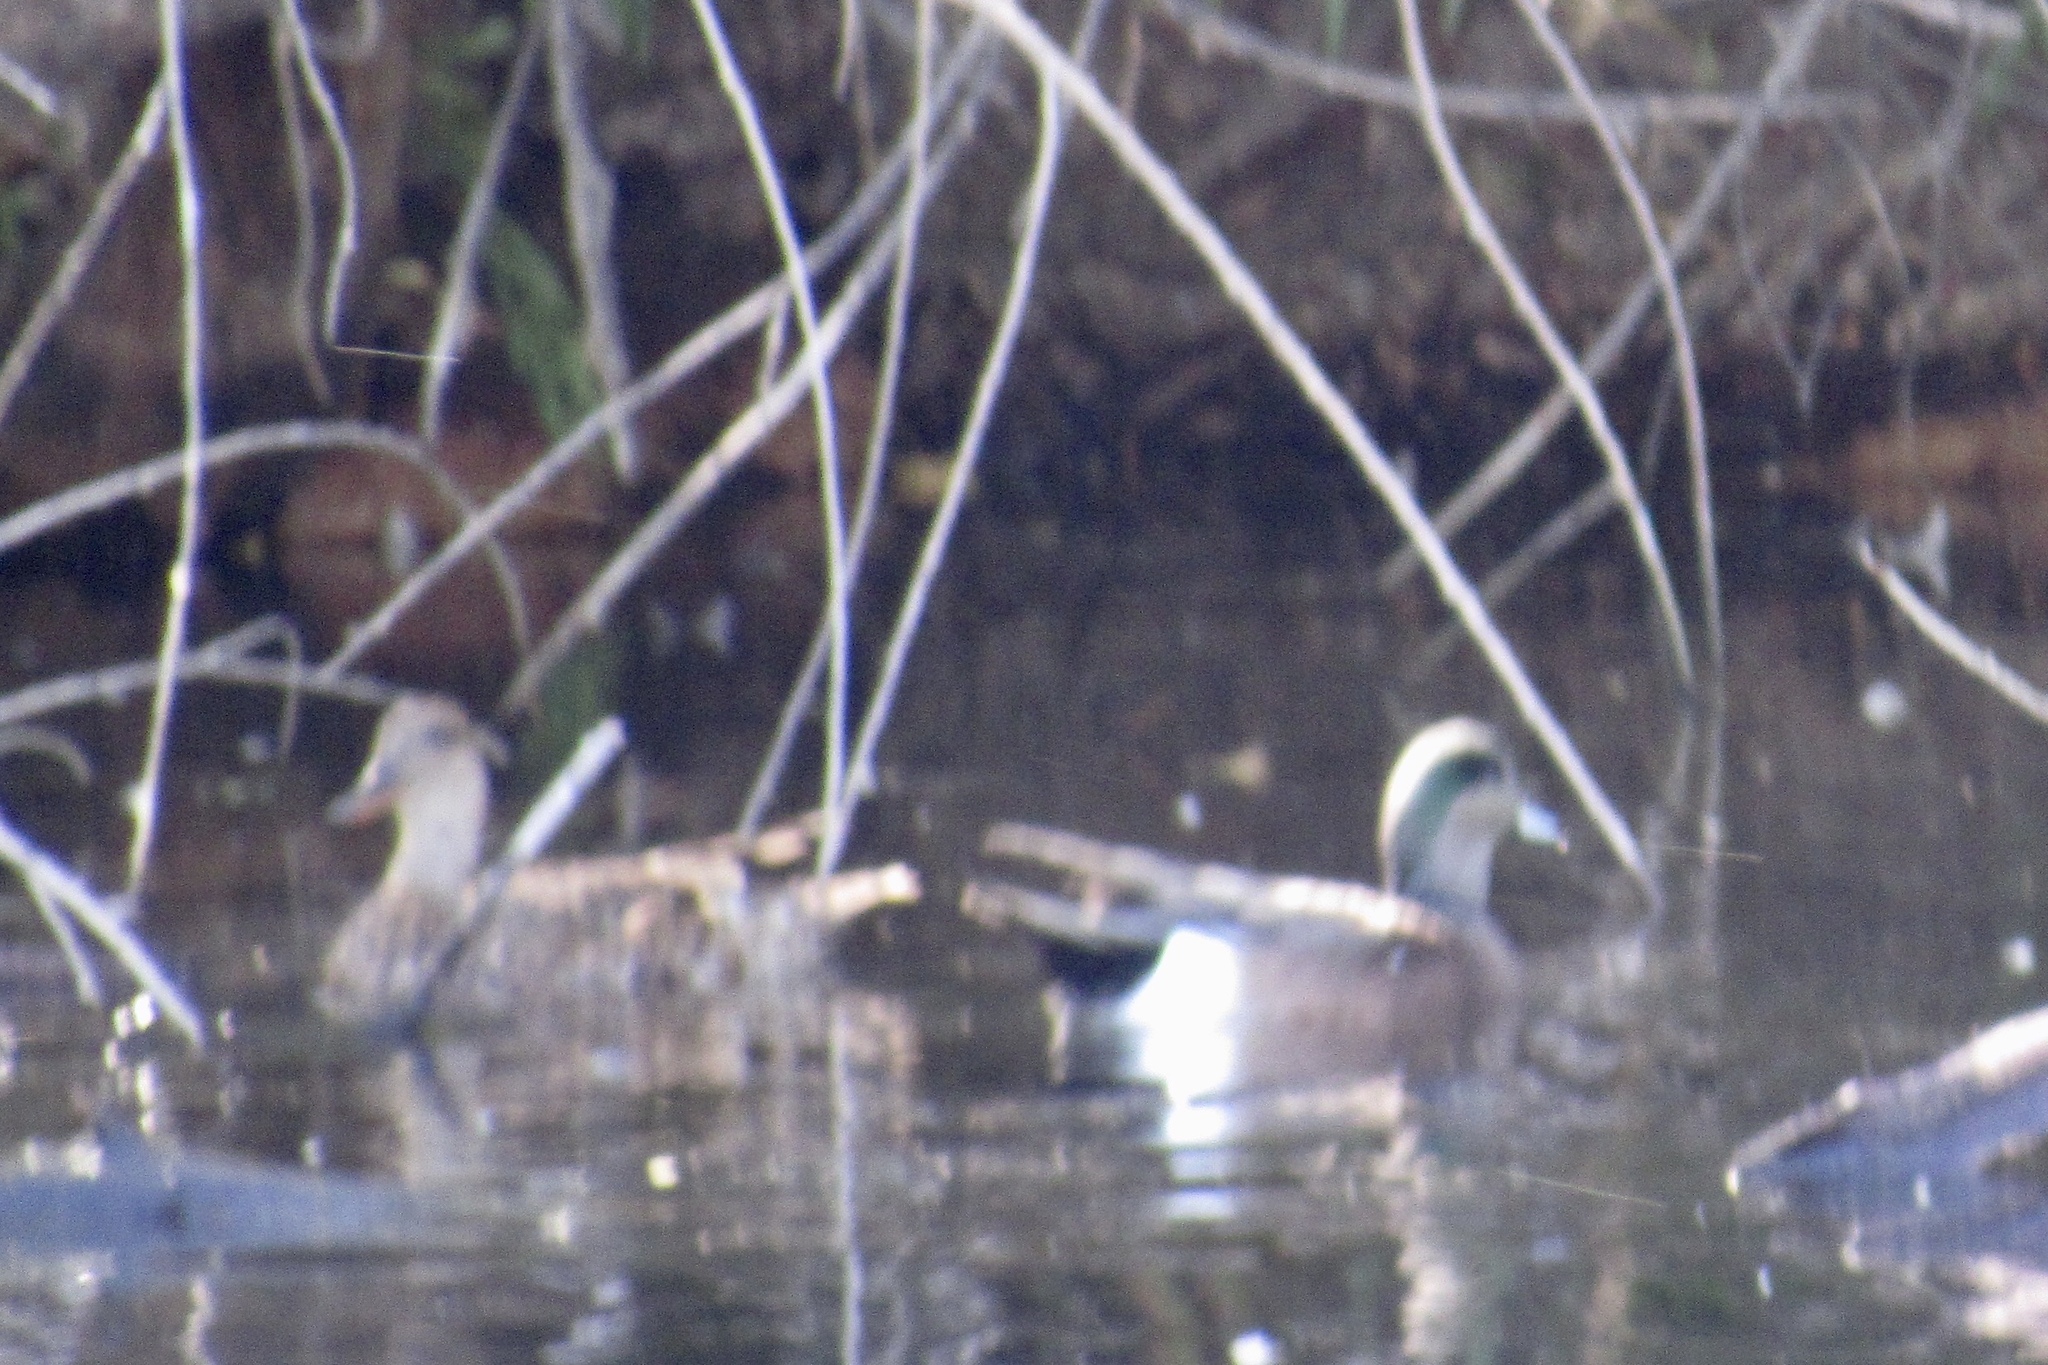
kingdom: Animalia
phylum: Chordata
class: Aves
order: Anseriformes
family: Anatidae
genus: Mareca
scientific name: Mareca americana
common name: American wigeon
